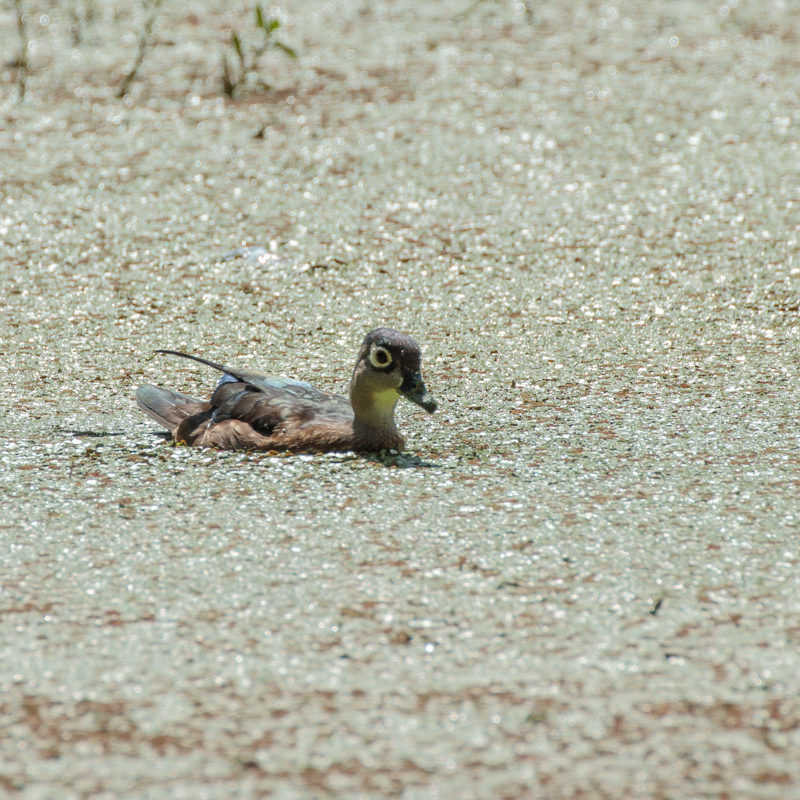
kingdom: Animalia
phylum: Chordata
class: Aves
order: Anseriformes
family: Anatidae
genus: Aix
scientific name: Aix sponsa
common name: Wood duck
